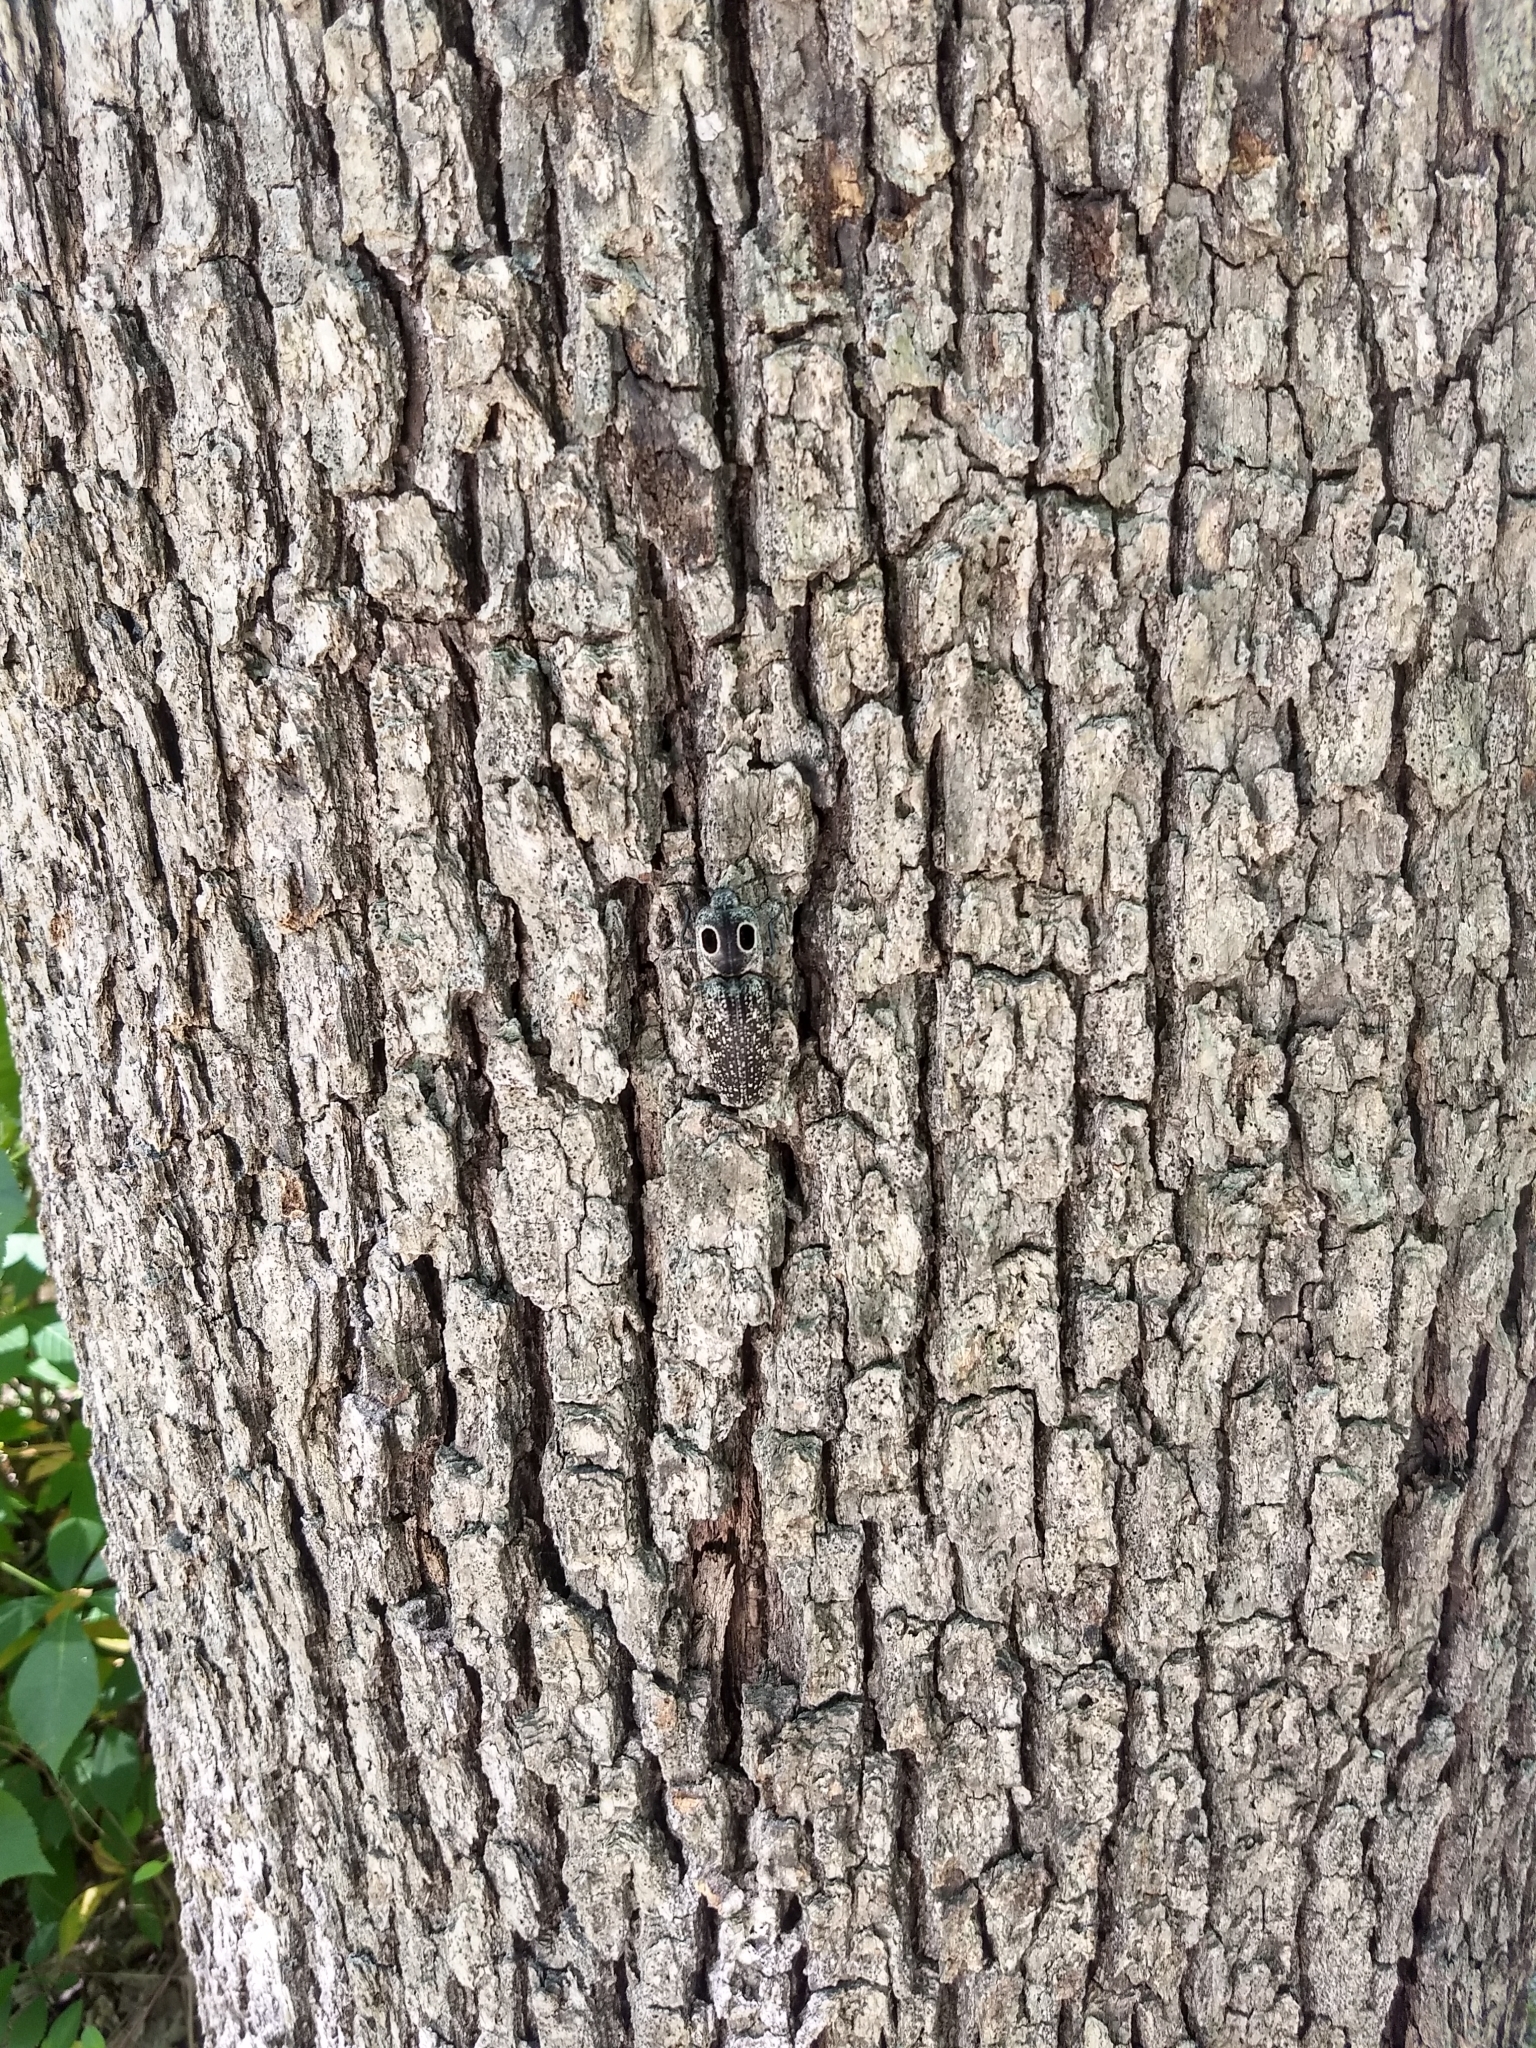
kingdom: Animalia
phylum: Arthropoda
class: Insecta
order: Coleoptera
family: Elateridae
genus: Alaus
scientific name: Alaus oculatus
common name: Eastern eyed click beetle
